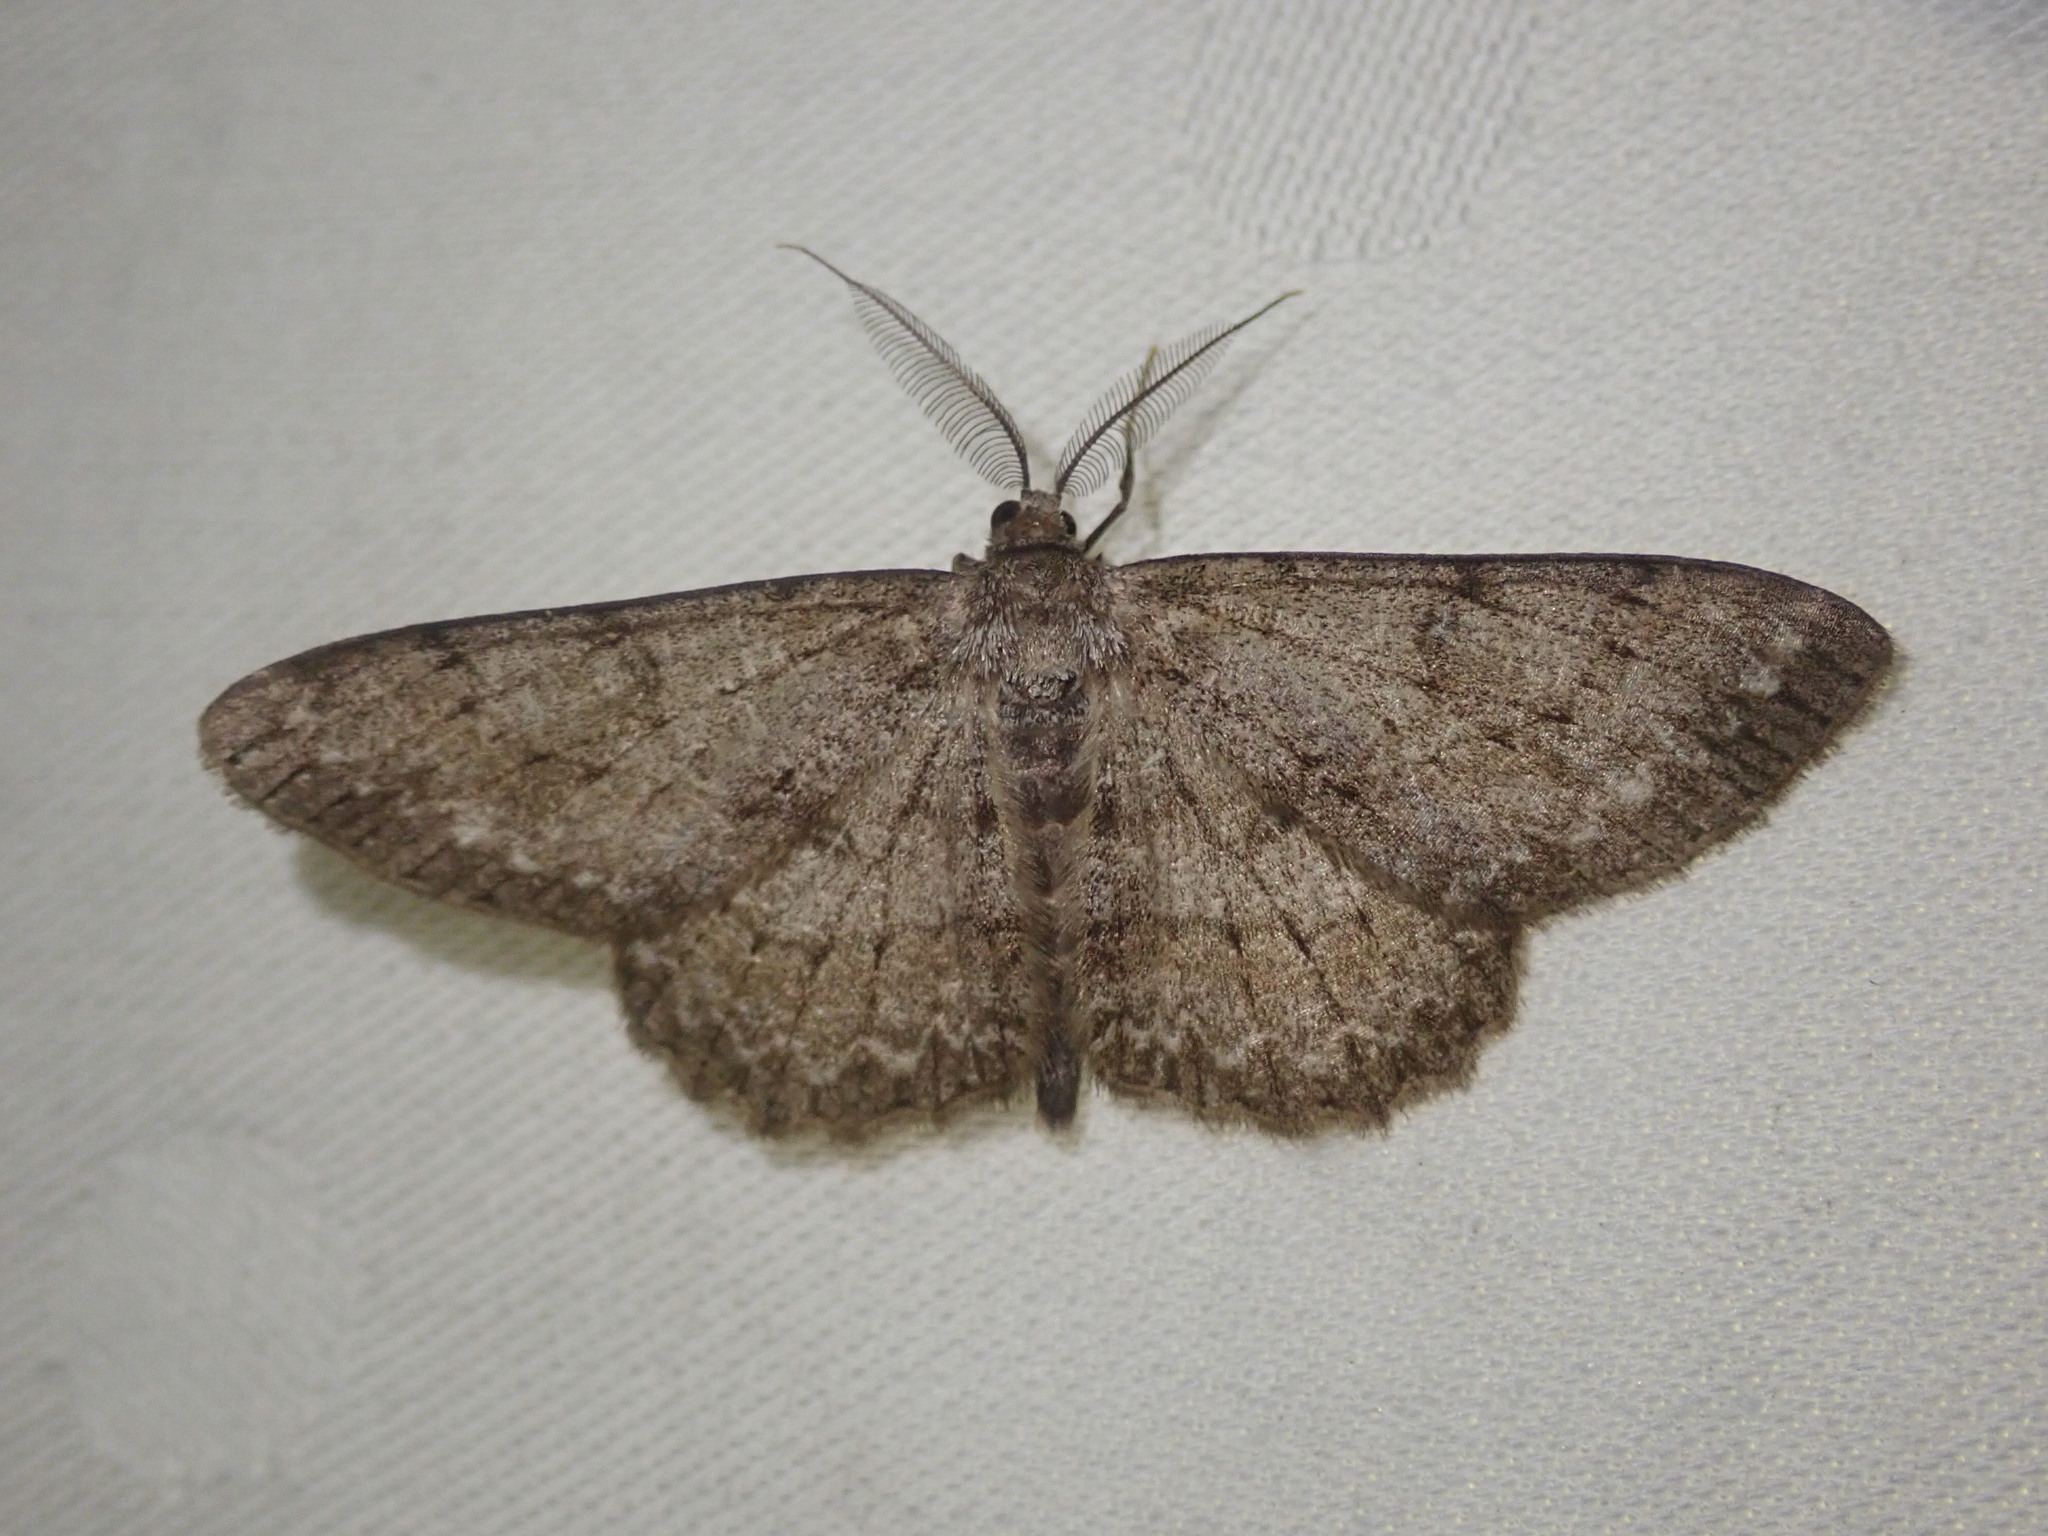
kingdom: Animalia
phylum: Arthropoda
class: Insecta
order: Lepidoptera
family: Geometridae
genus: Hypomecis
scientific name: Hypomecis punctinalis
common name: Pale oak beauty
